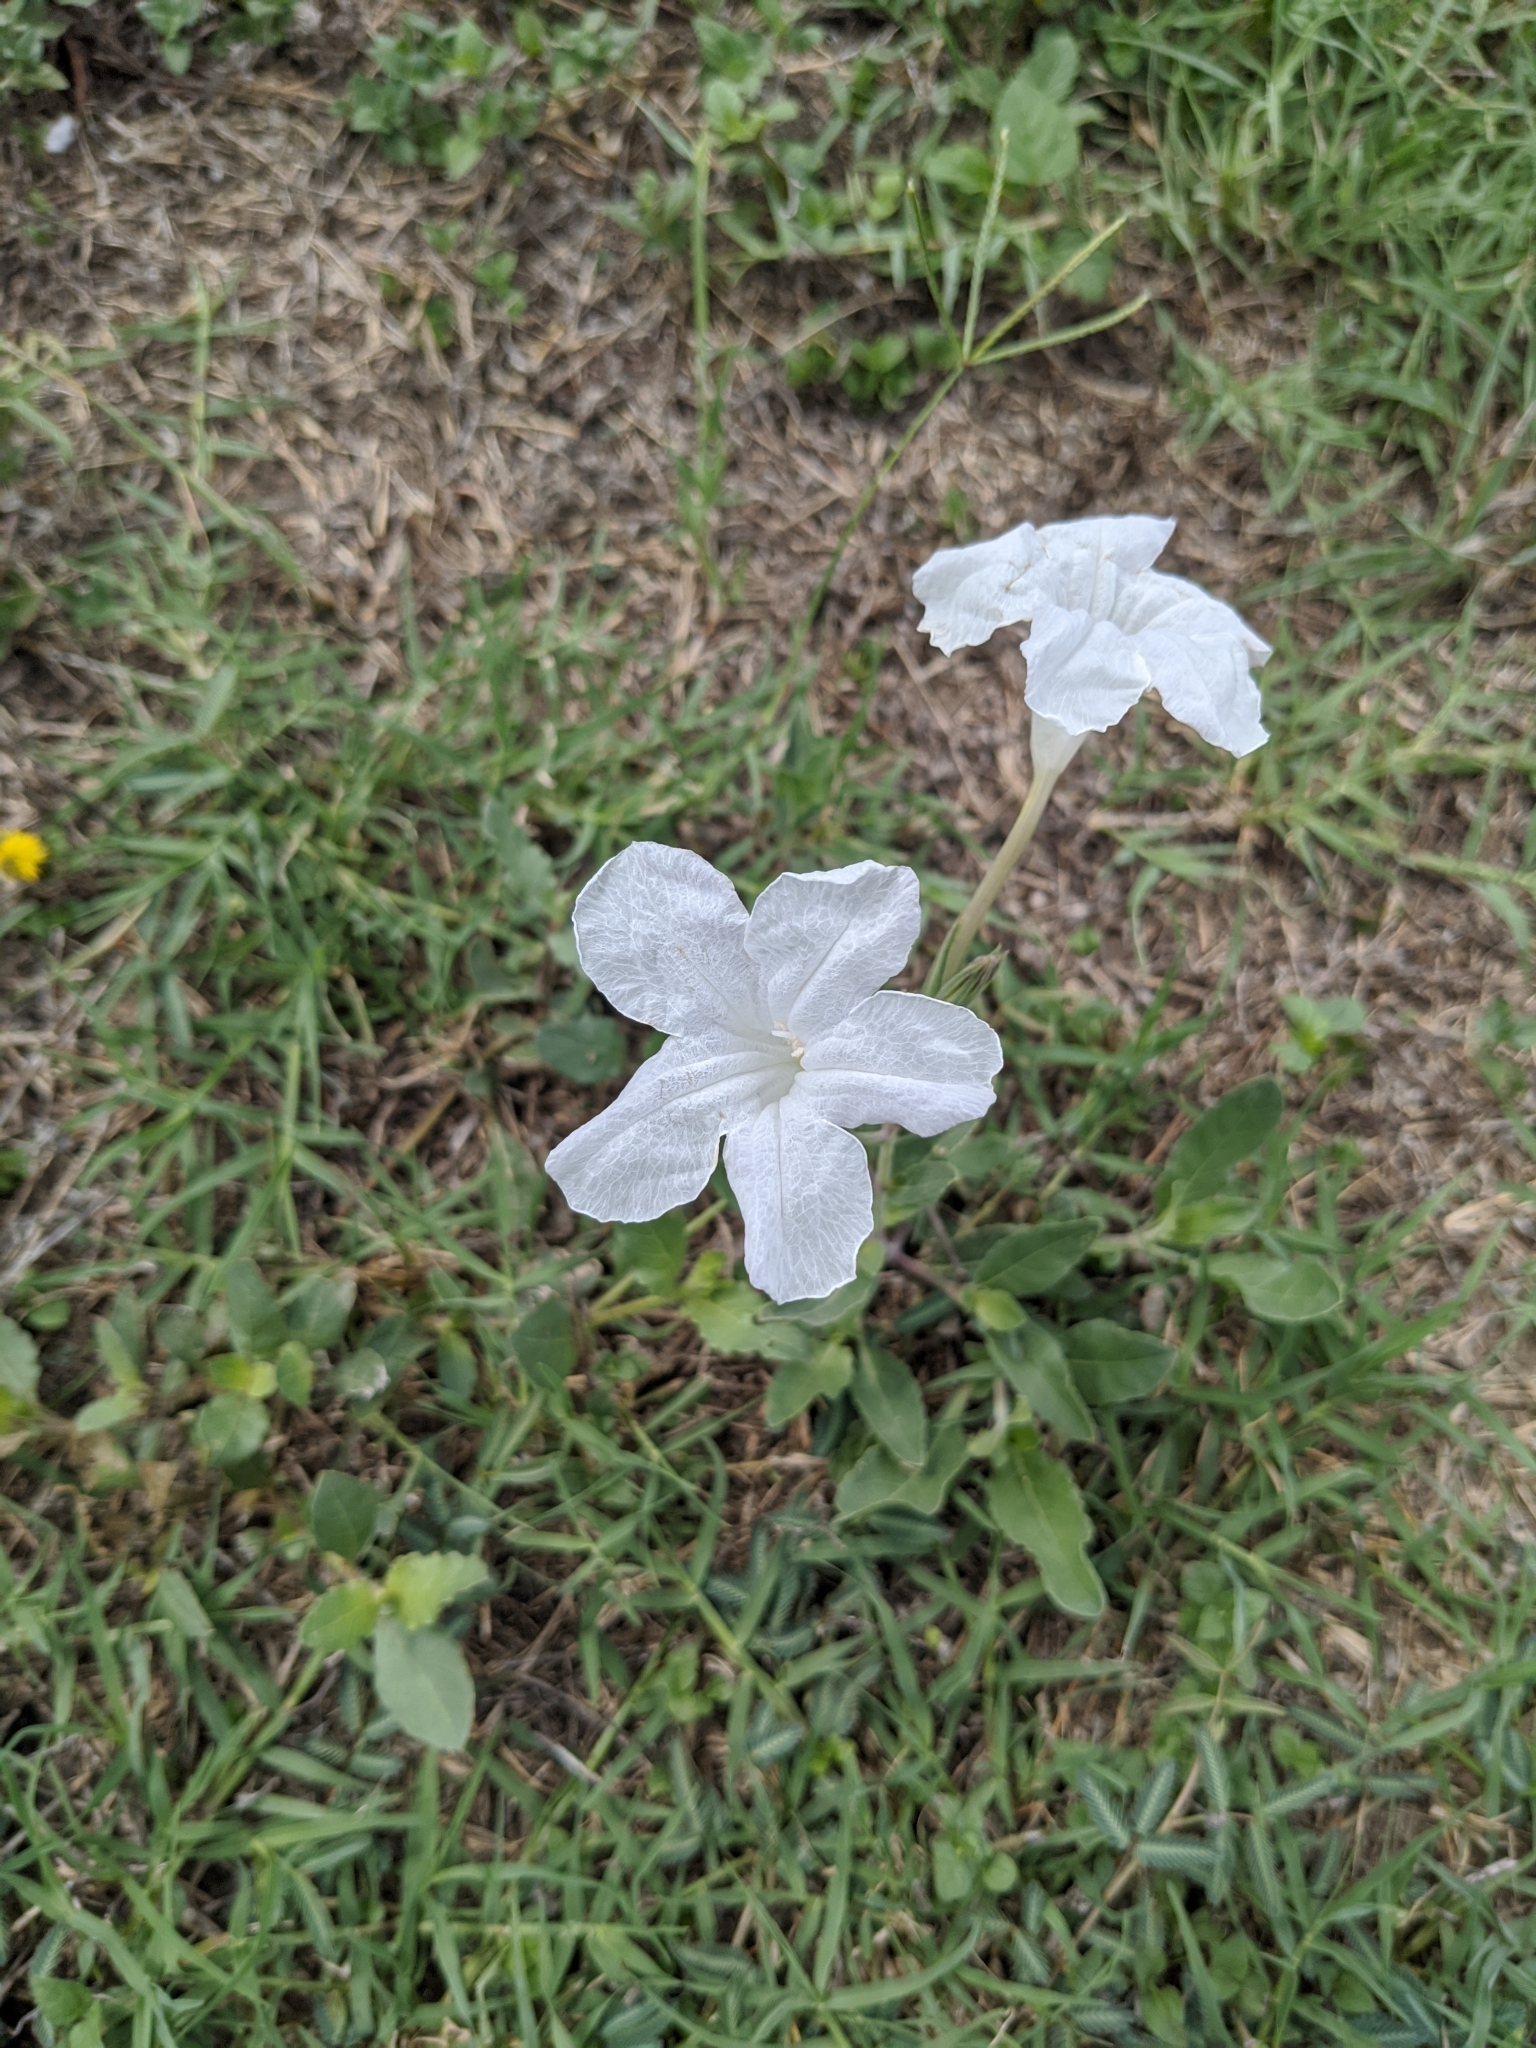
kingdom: Plantae
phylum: Tracheophyta
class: Magnoliopsida
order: Lamiales
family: Acanthaceae
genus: Ruellia
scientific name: Ruellia metziae
